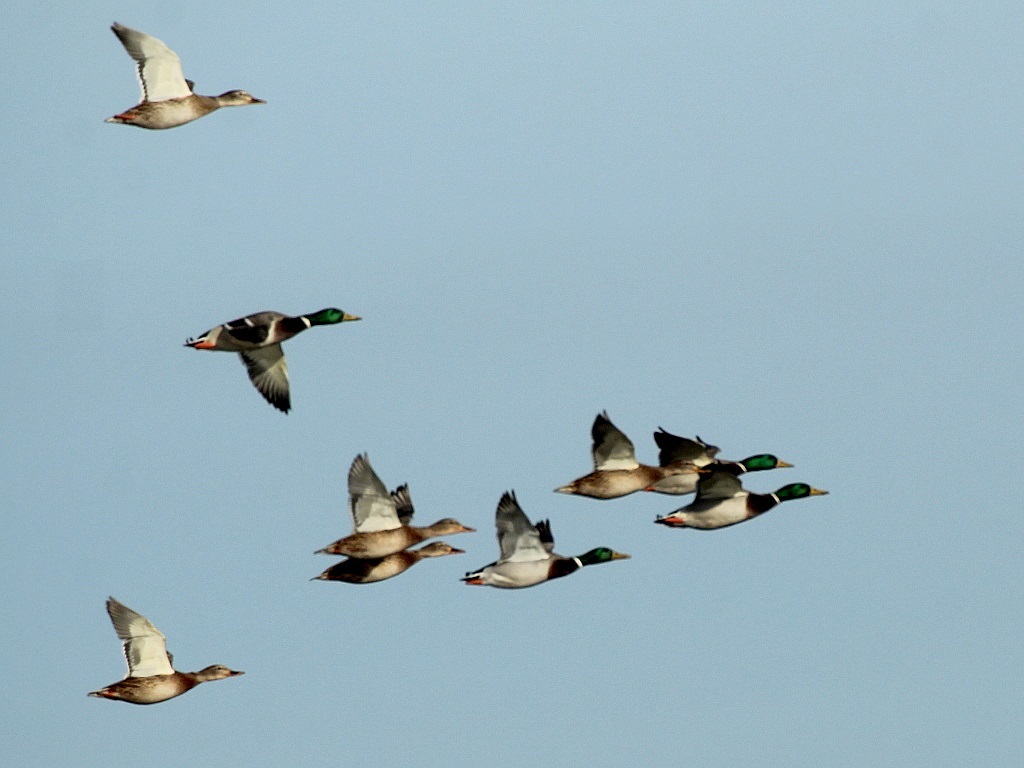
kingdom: Animalia
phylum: Chordata
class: Aves
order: Anseriformes
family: Anatidae
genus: Anas
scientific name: Anas platyrhynchos
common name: Mallard
